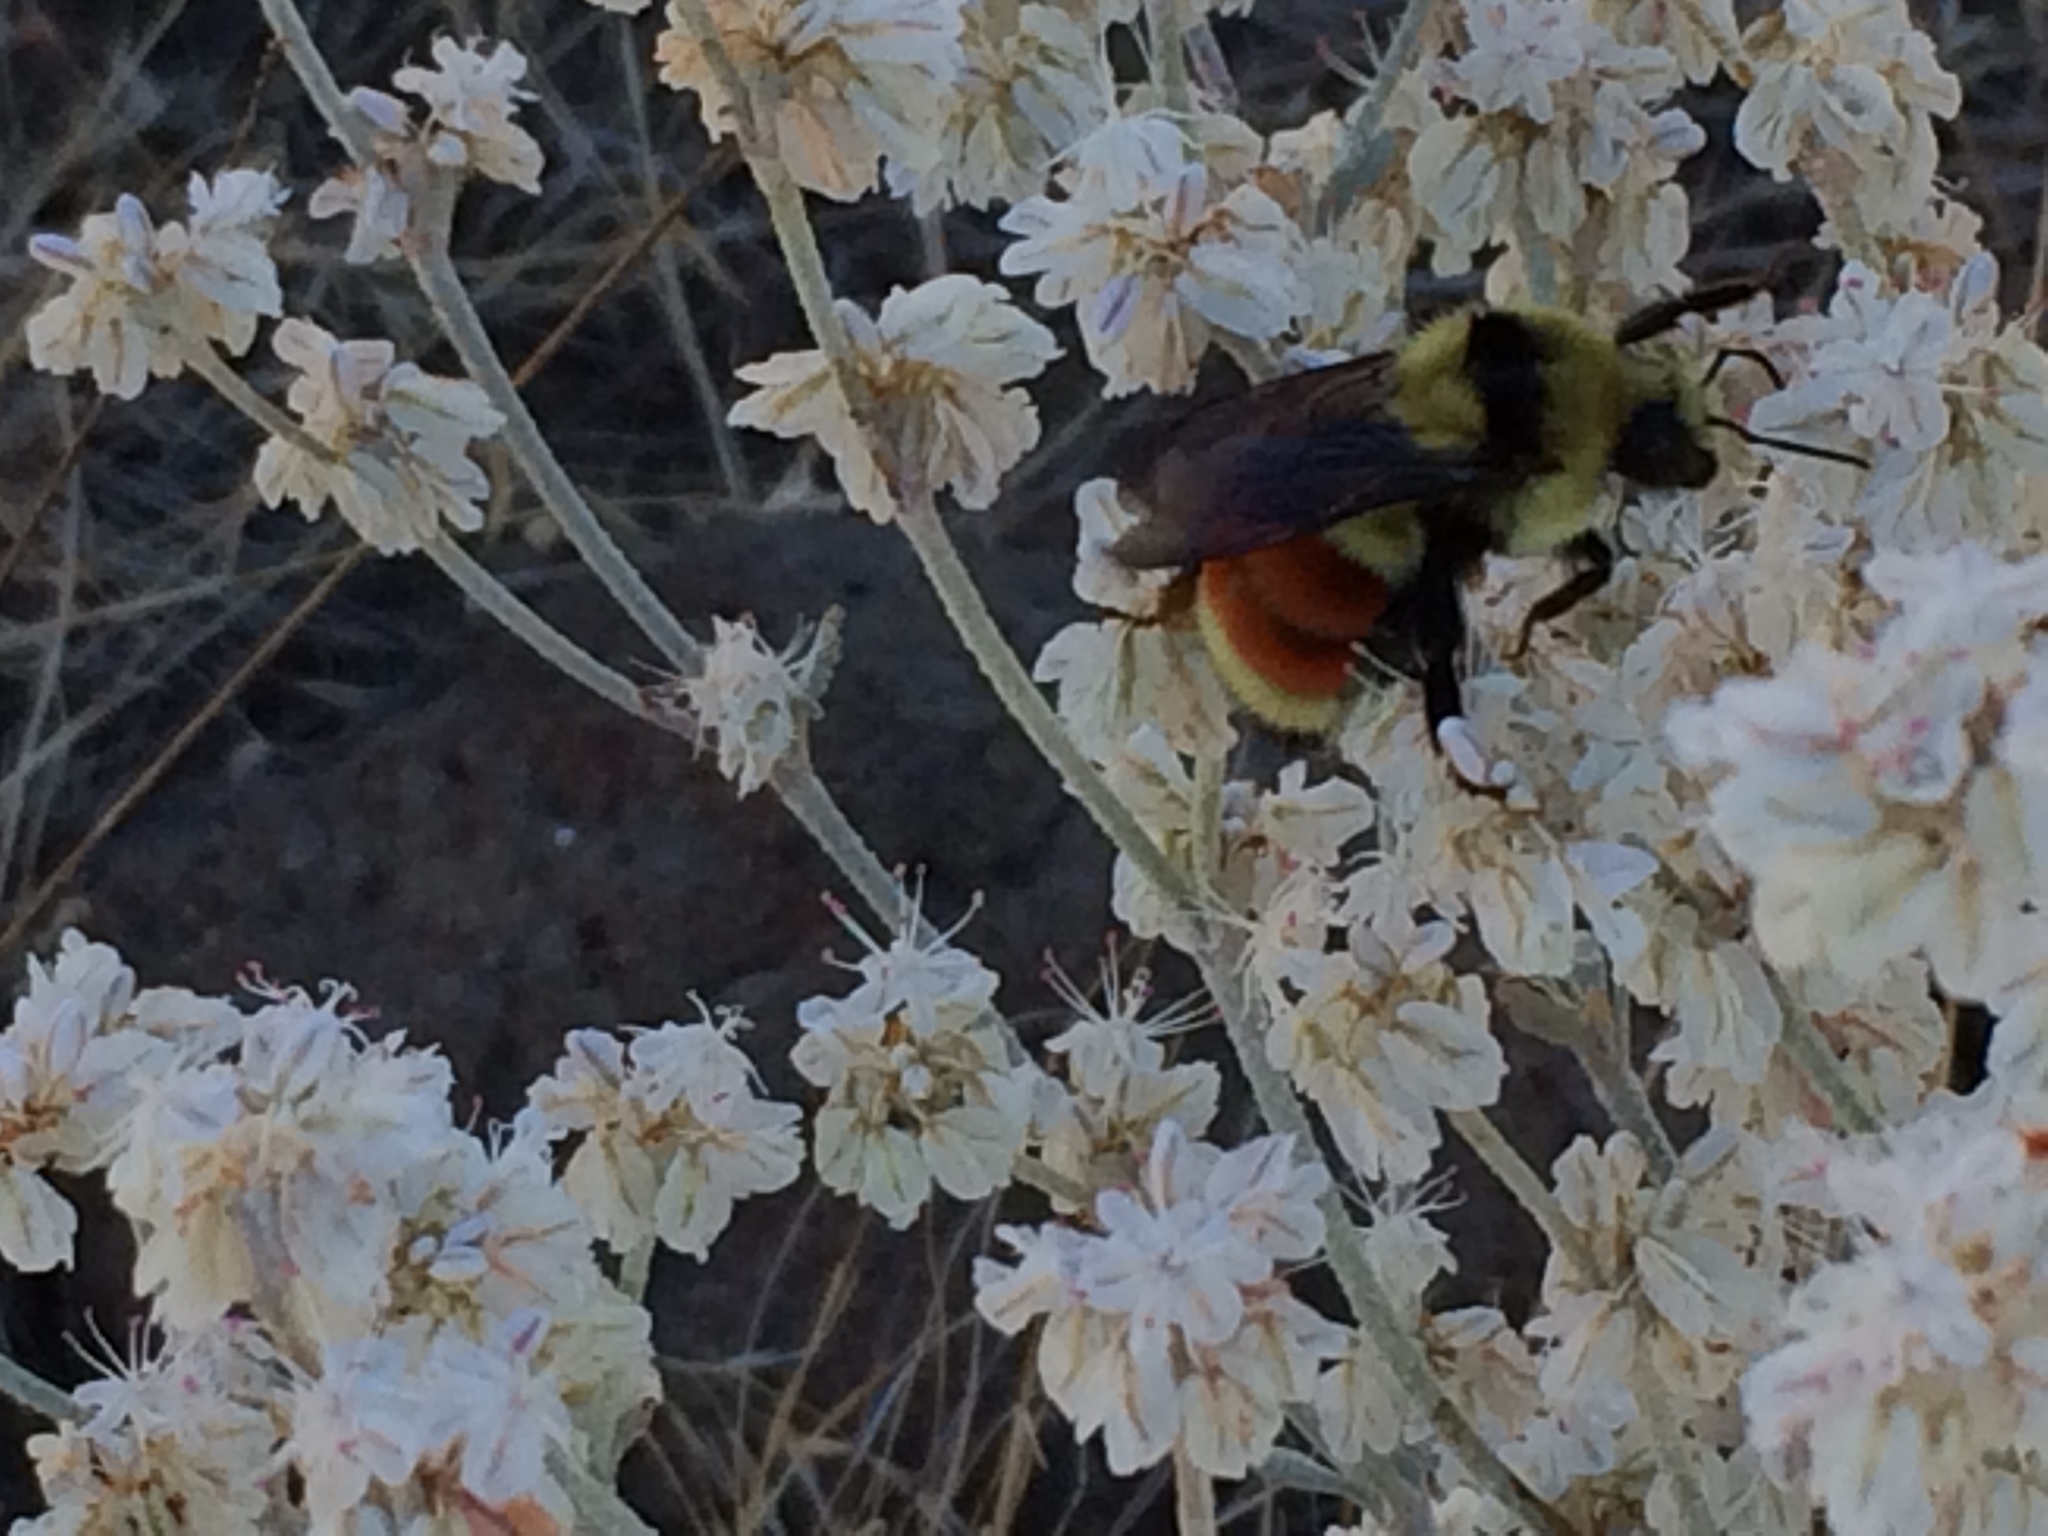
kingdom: Animalia
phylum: Arthropoda
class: Insecta
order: Hymenoptera
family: Apidae
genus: Bombus
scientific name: Bombus huntii
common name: Hunt bumble bee
